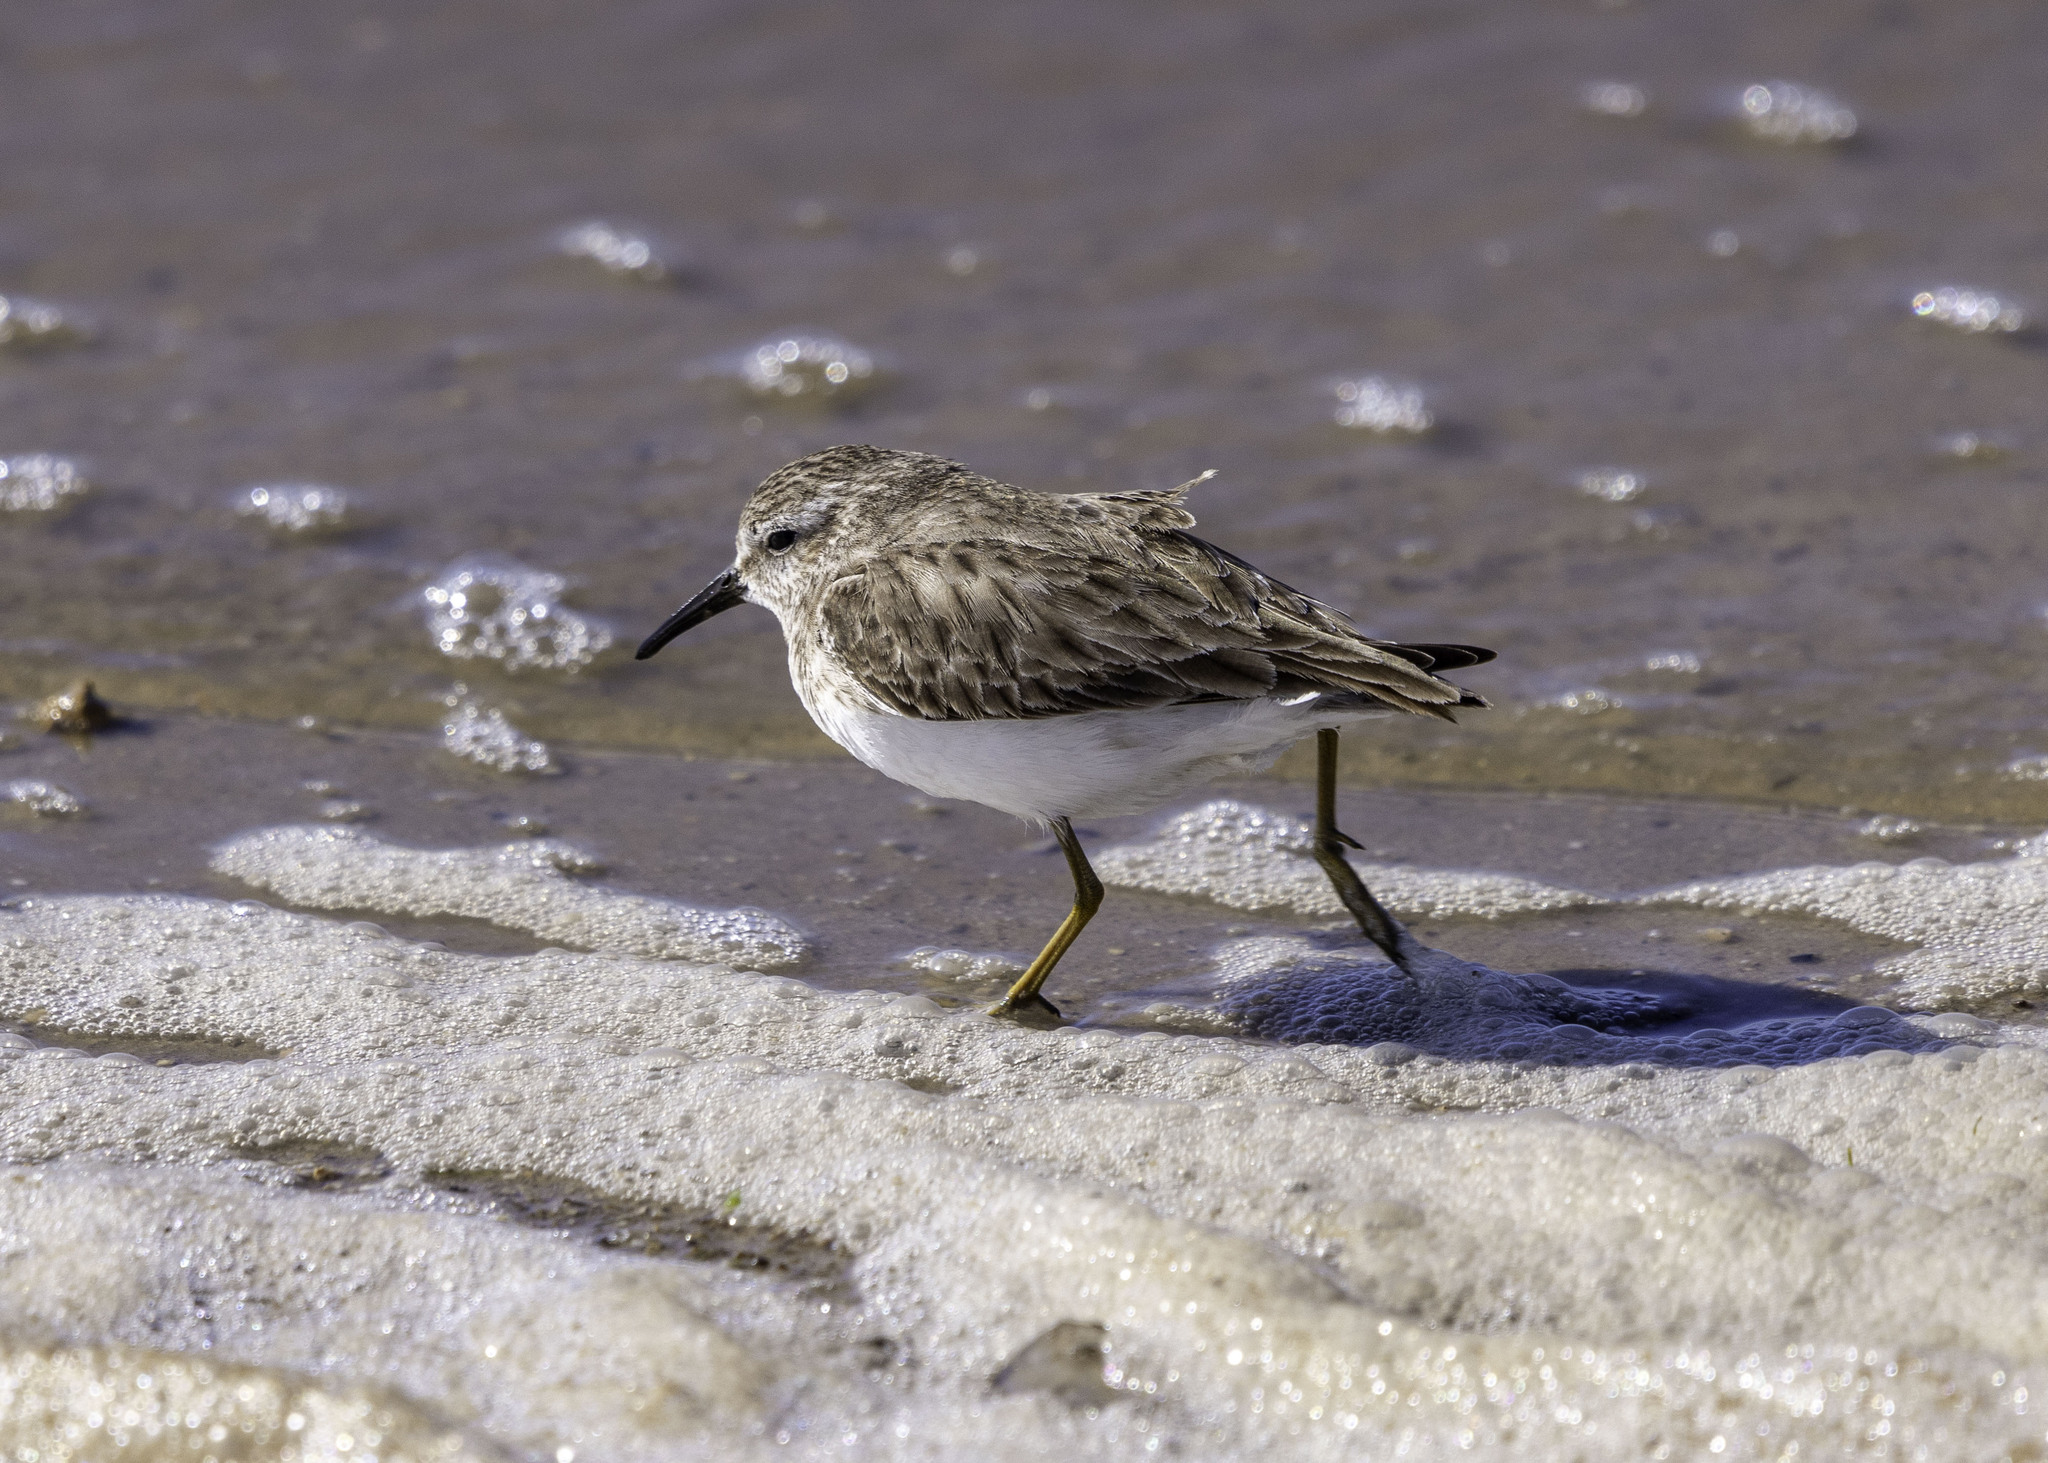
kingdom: Animalia
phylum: Chordata
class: Aves
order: Charadriiformes
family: Scolopacidae
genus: Calidris
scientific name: Calidris minutilla
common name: Least sandpiper
